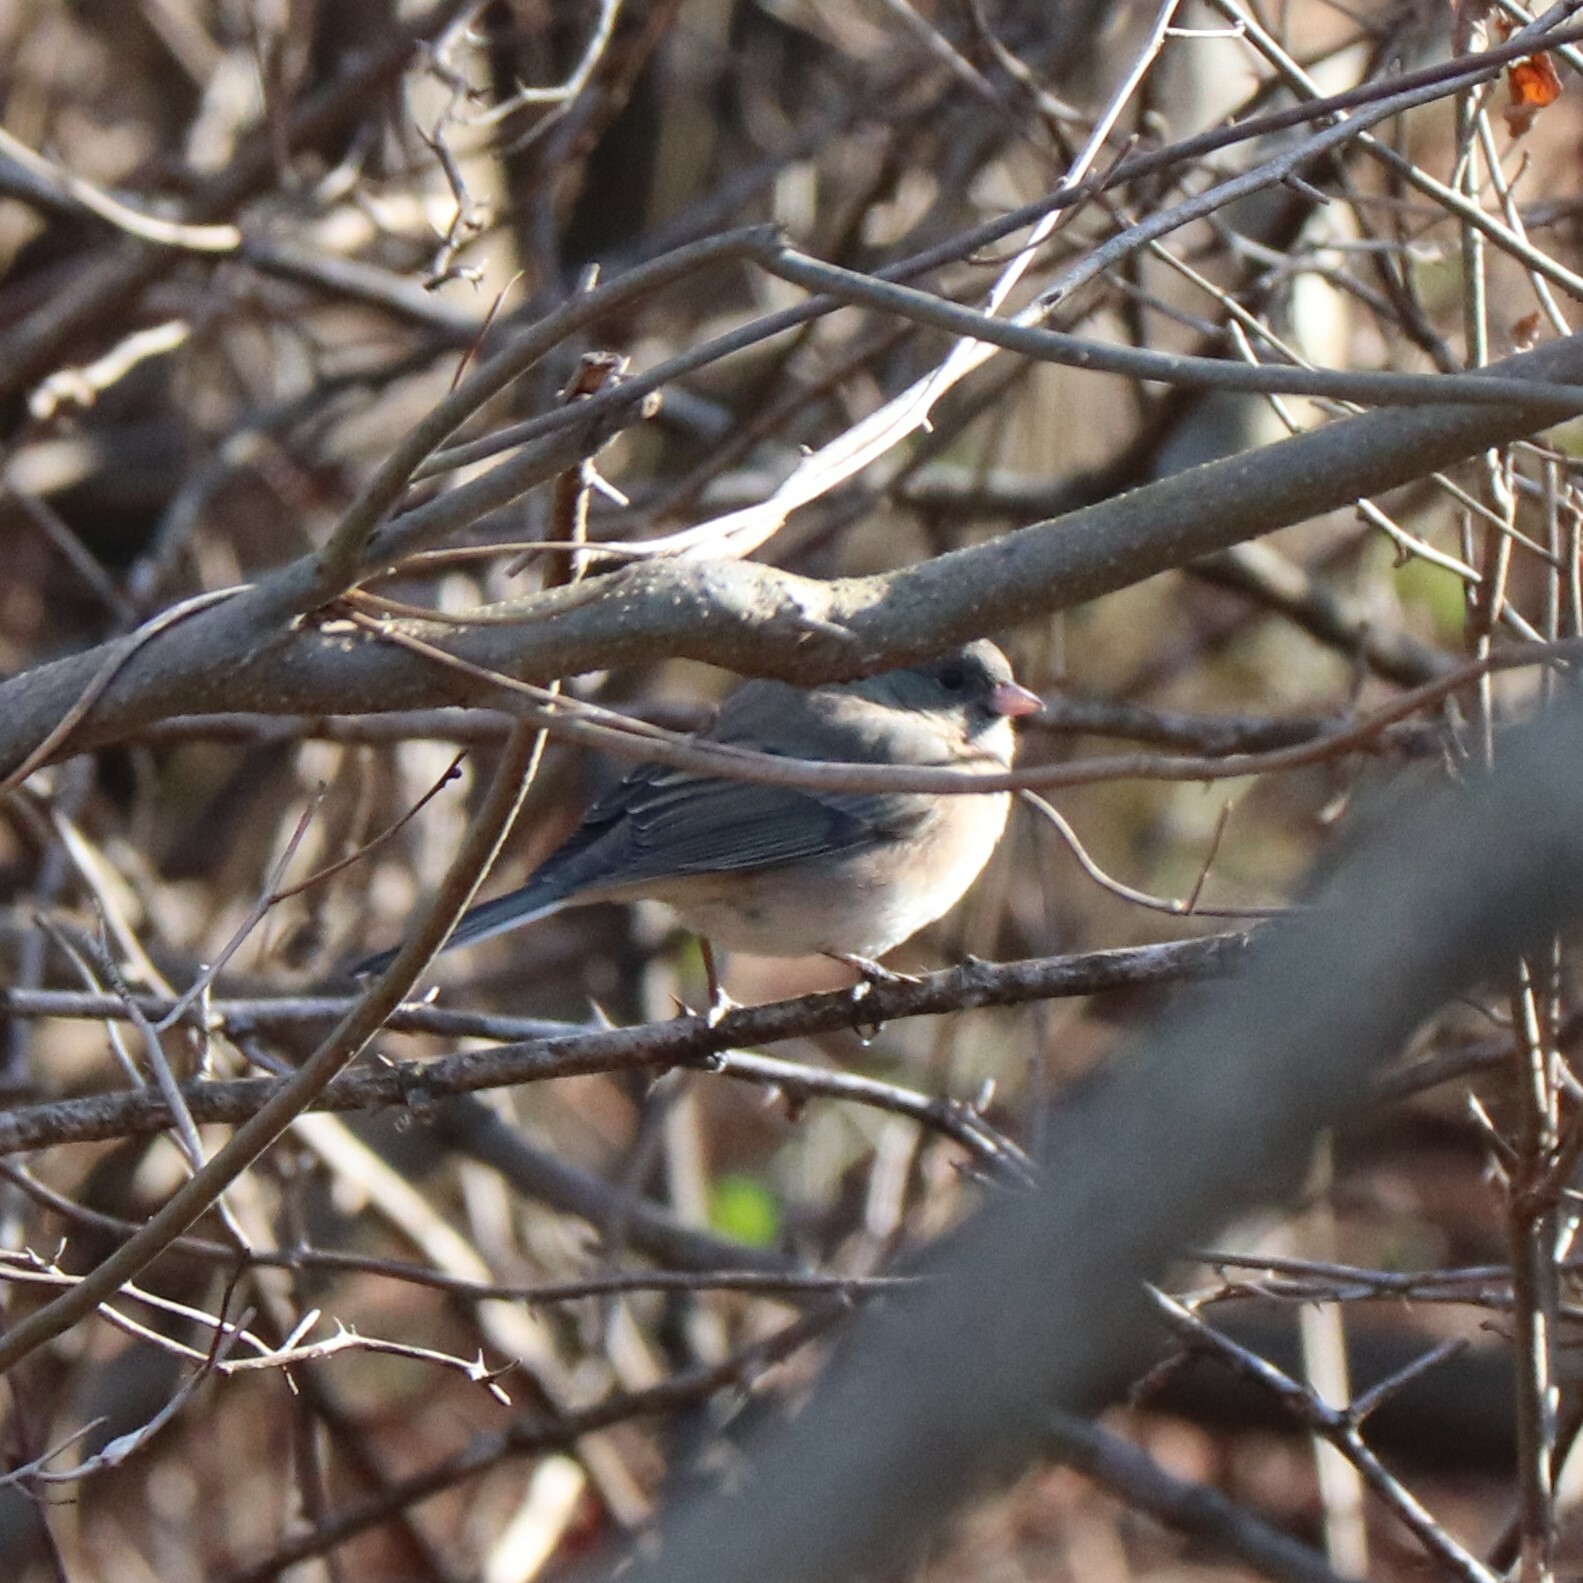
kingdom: Animalia
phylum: Chordata
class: Aves
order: Passeriformes
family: Passerellidae
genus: Junco
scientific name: Junco hyemalis
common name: Dark-eyed junco
